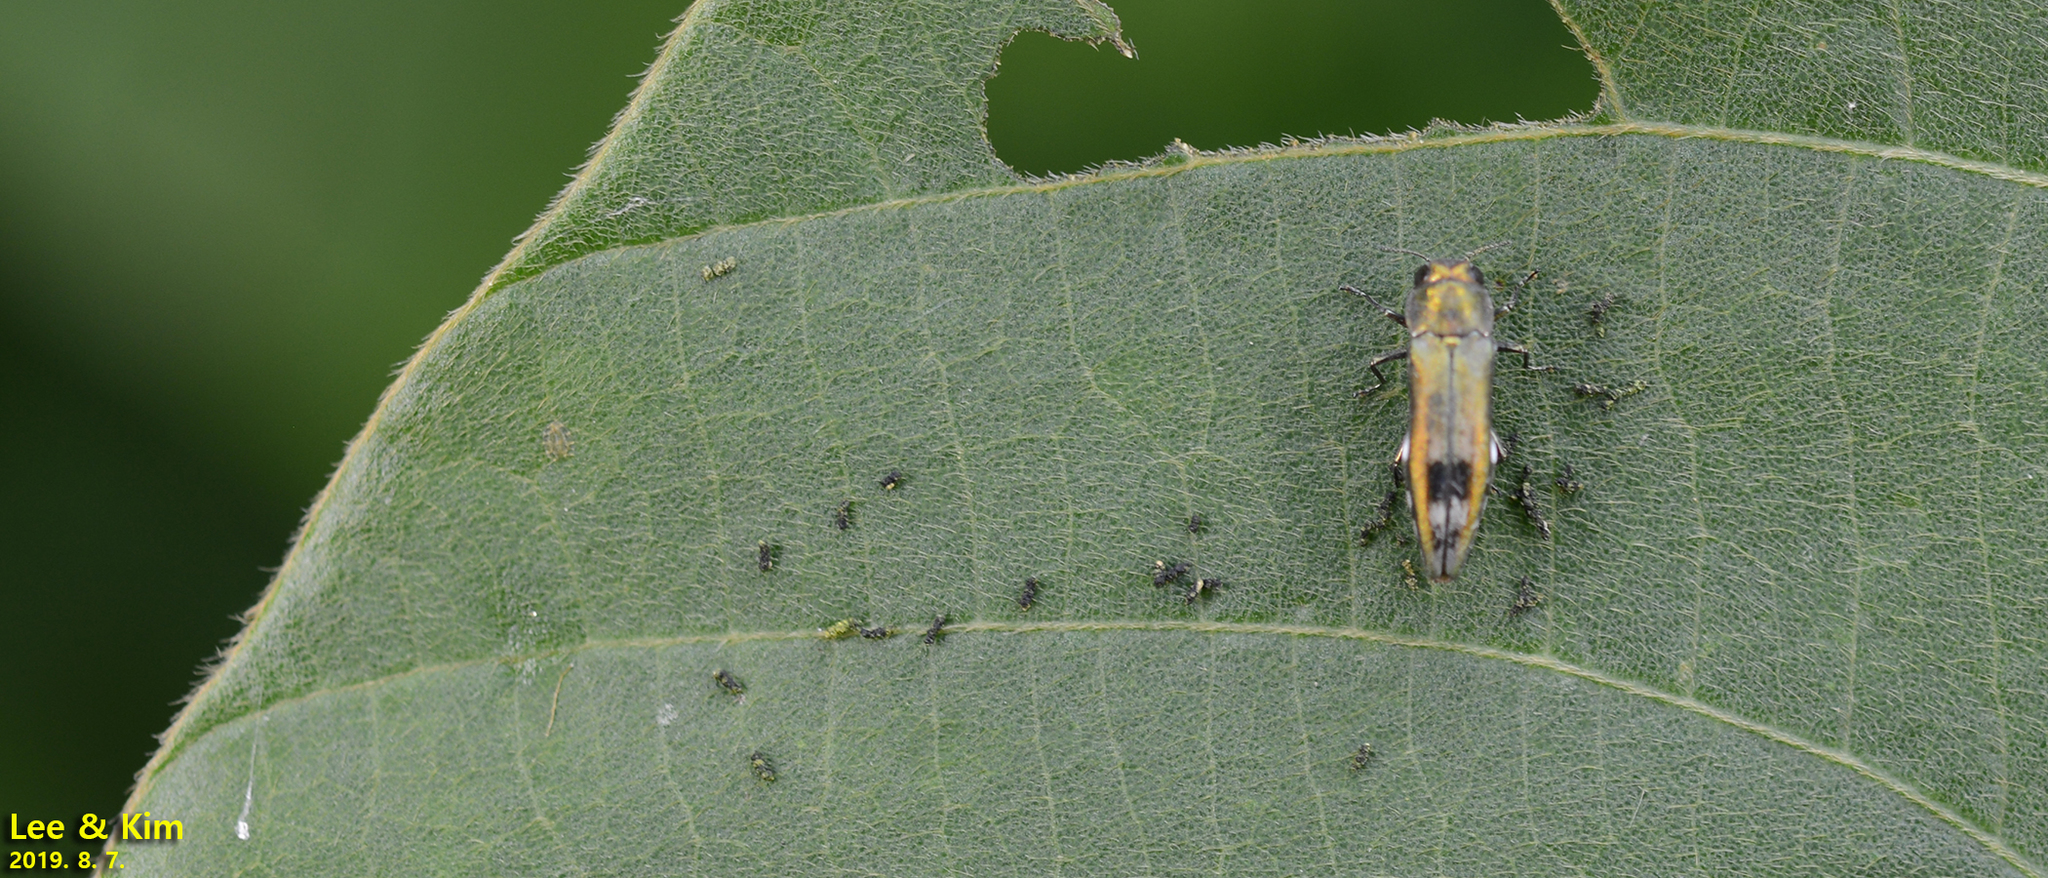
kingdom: Animalia
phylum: Arthropoda
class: Insecta
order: Coleoptera
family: Buprestidae
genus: Agrilus
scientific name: Agrilus chujoi
